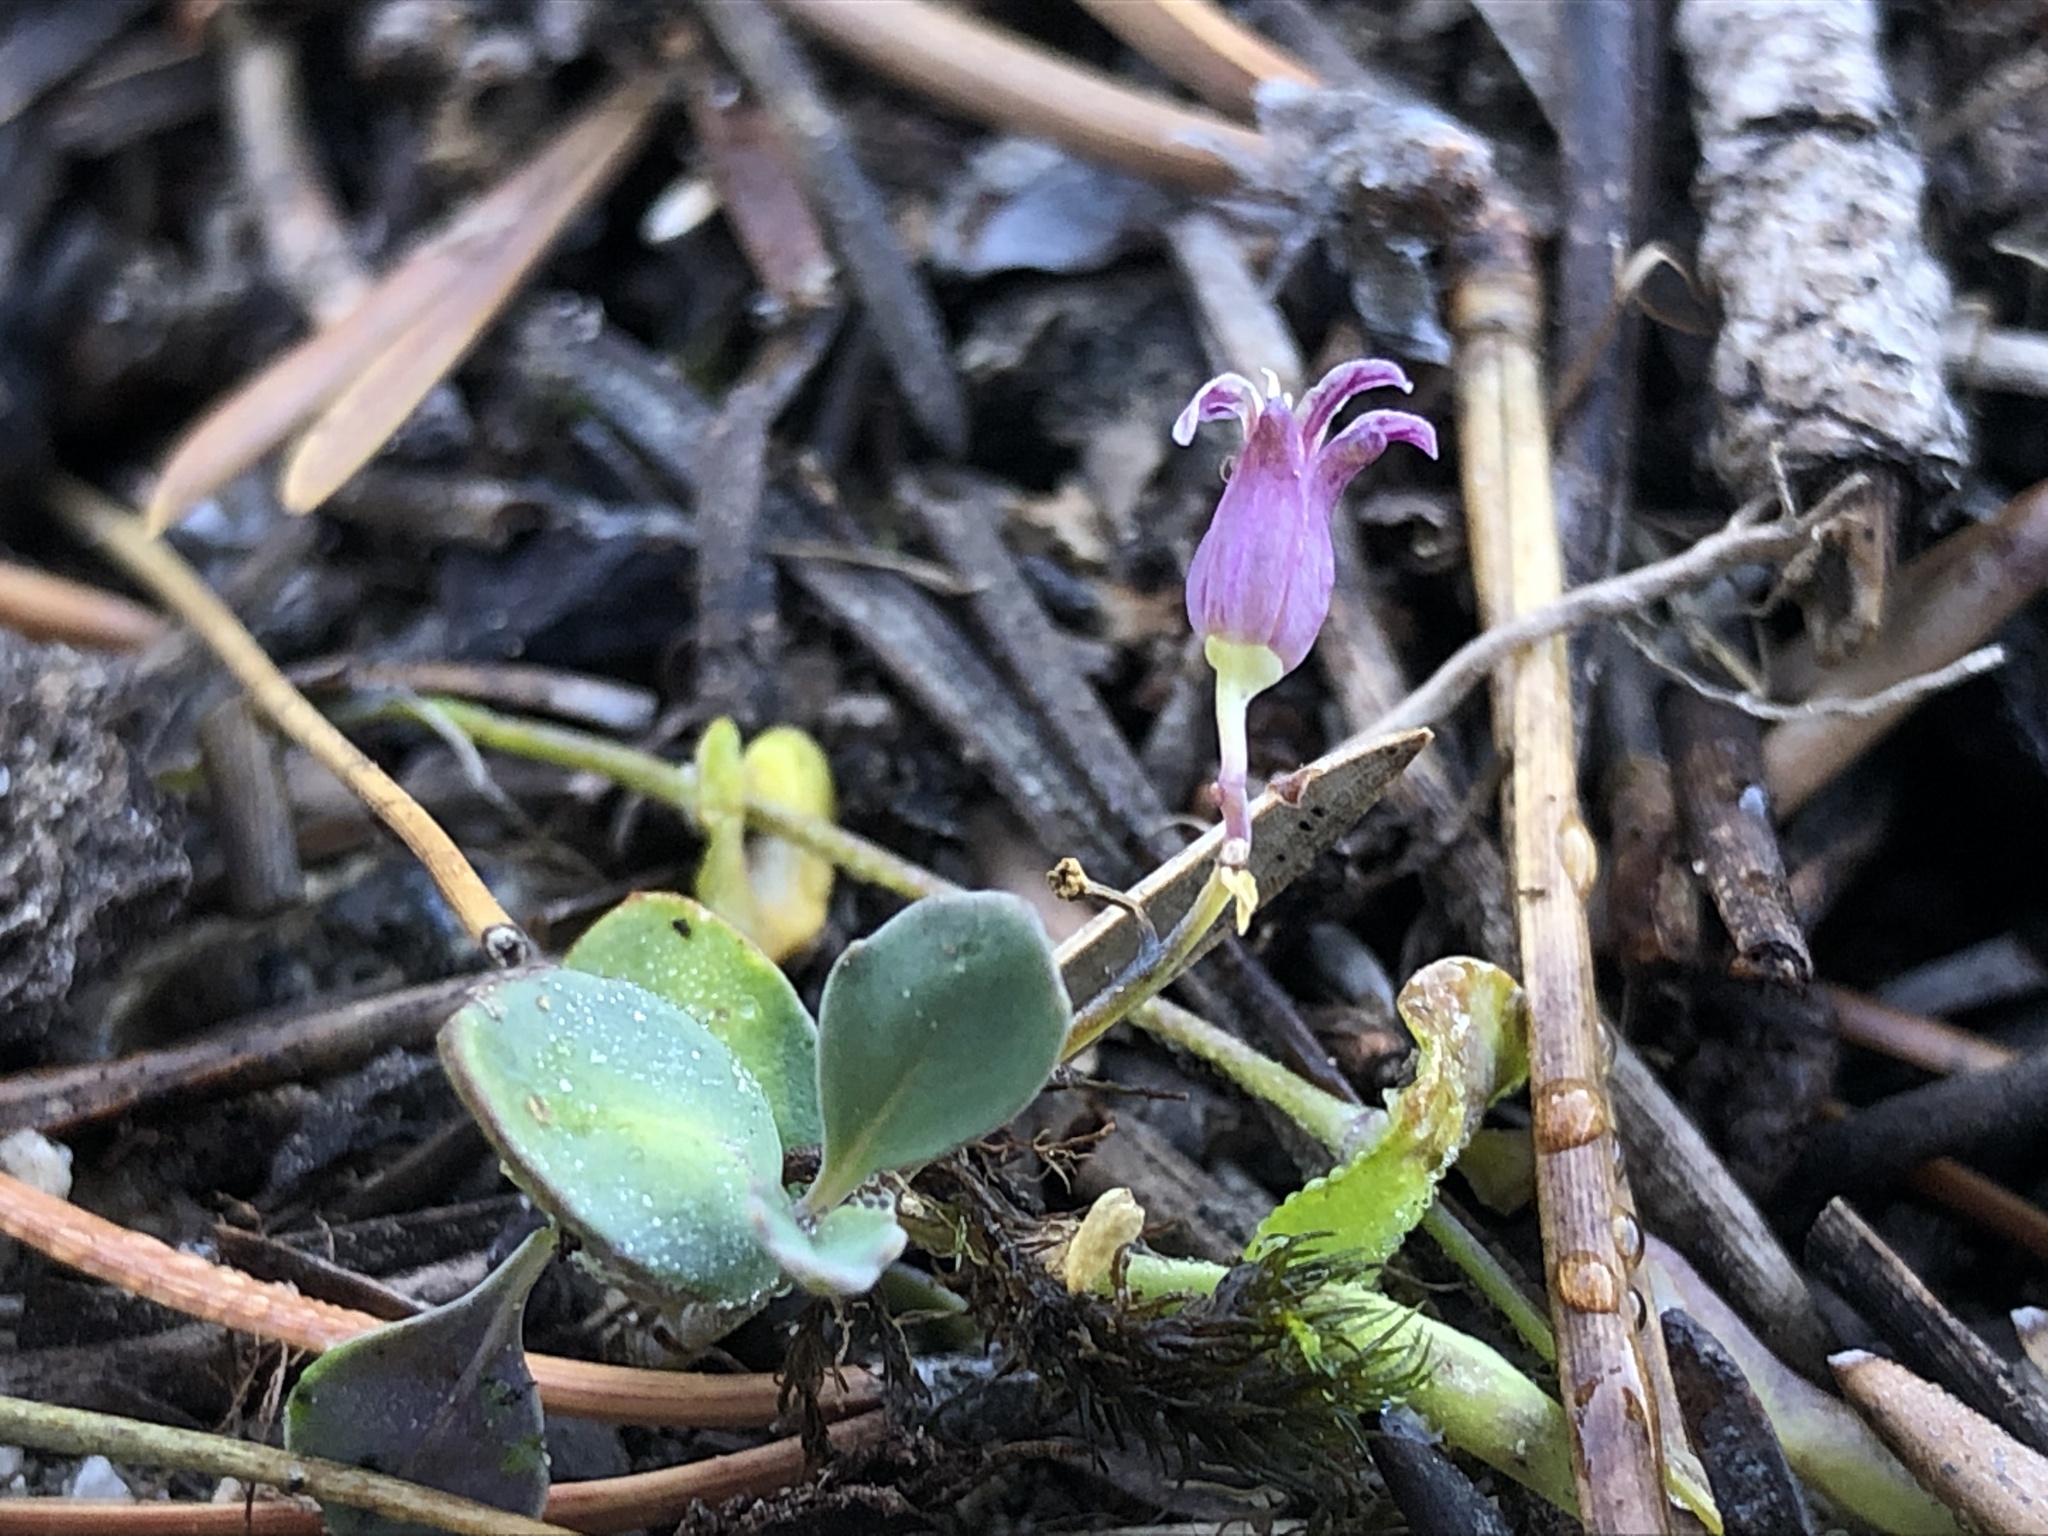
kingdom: Plantae
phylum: Tracheophyta
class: Magnoliopsida
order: Brassicales
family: Brassicaceae
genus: Streptanthus
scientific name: Streptanthus tortuosus
